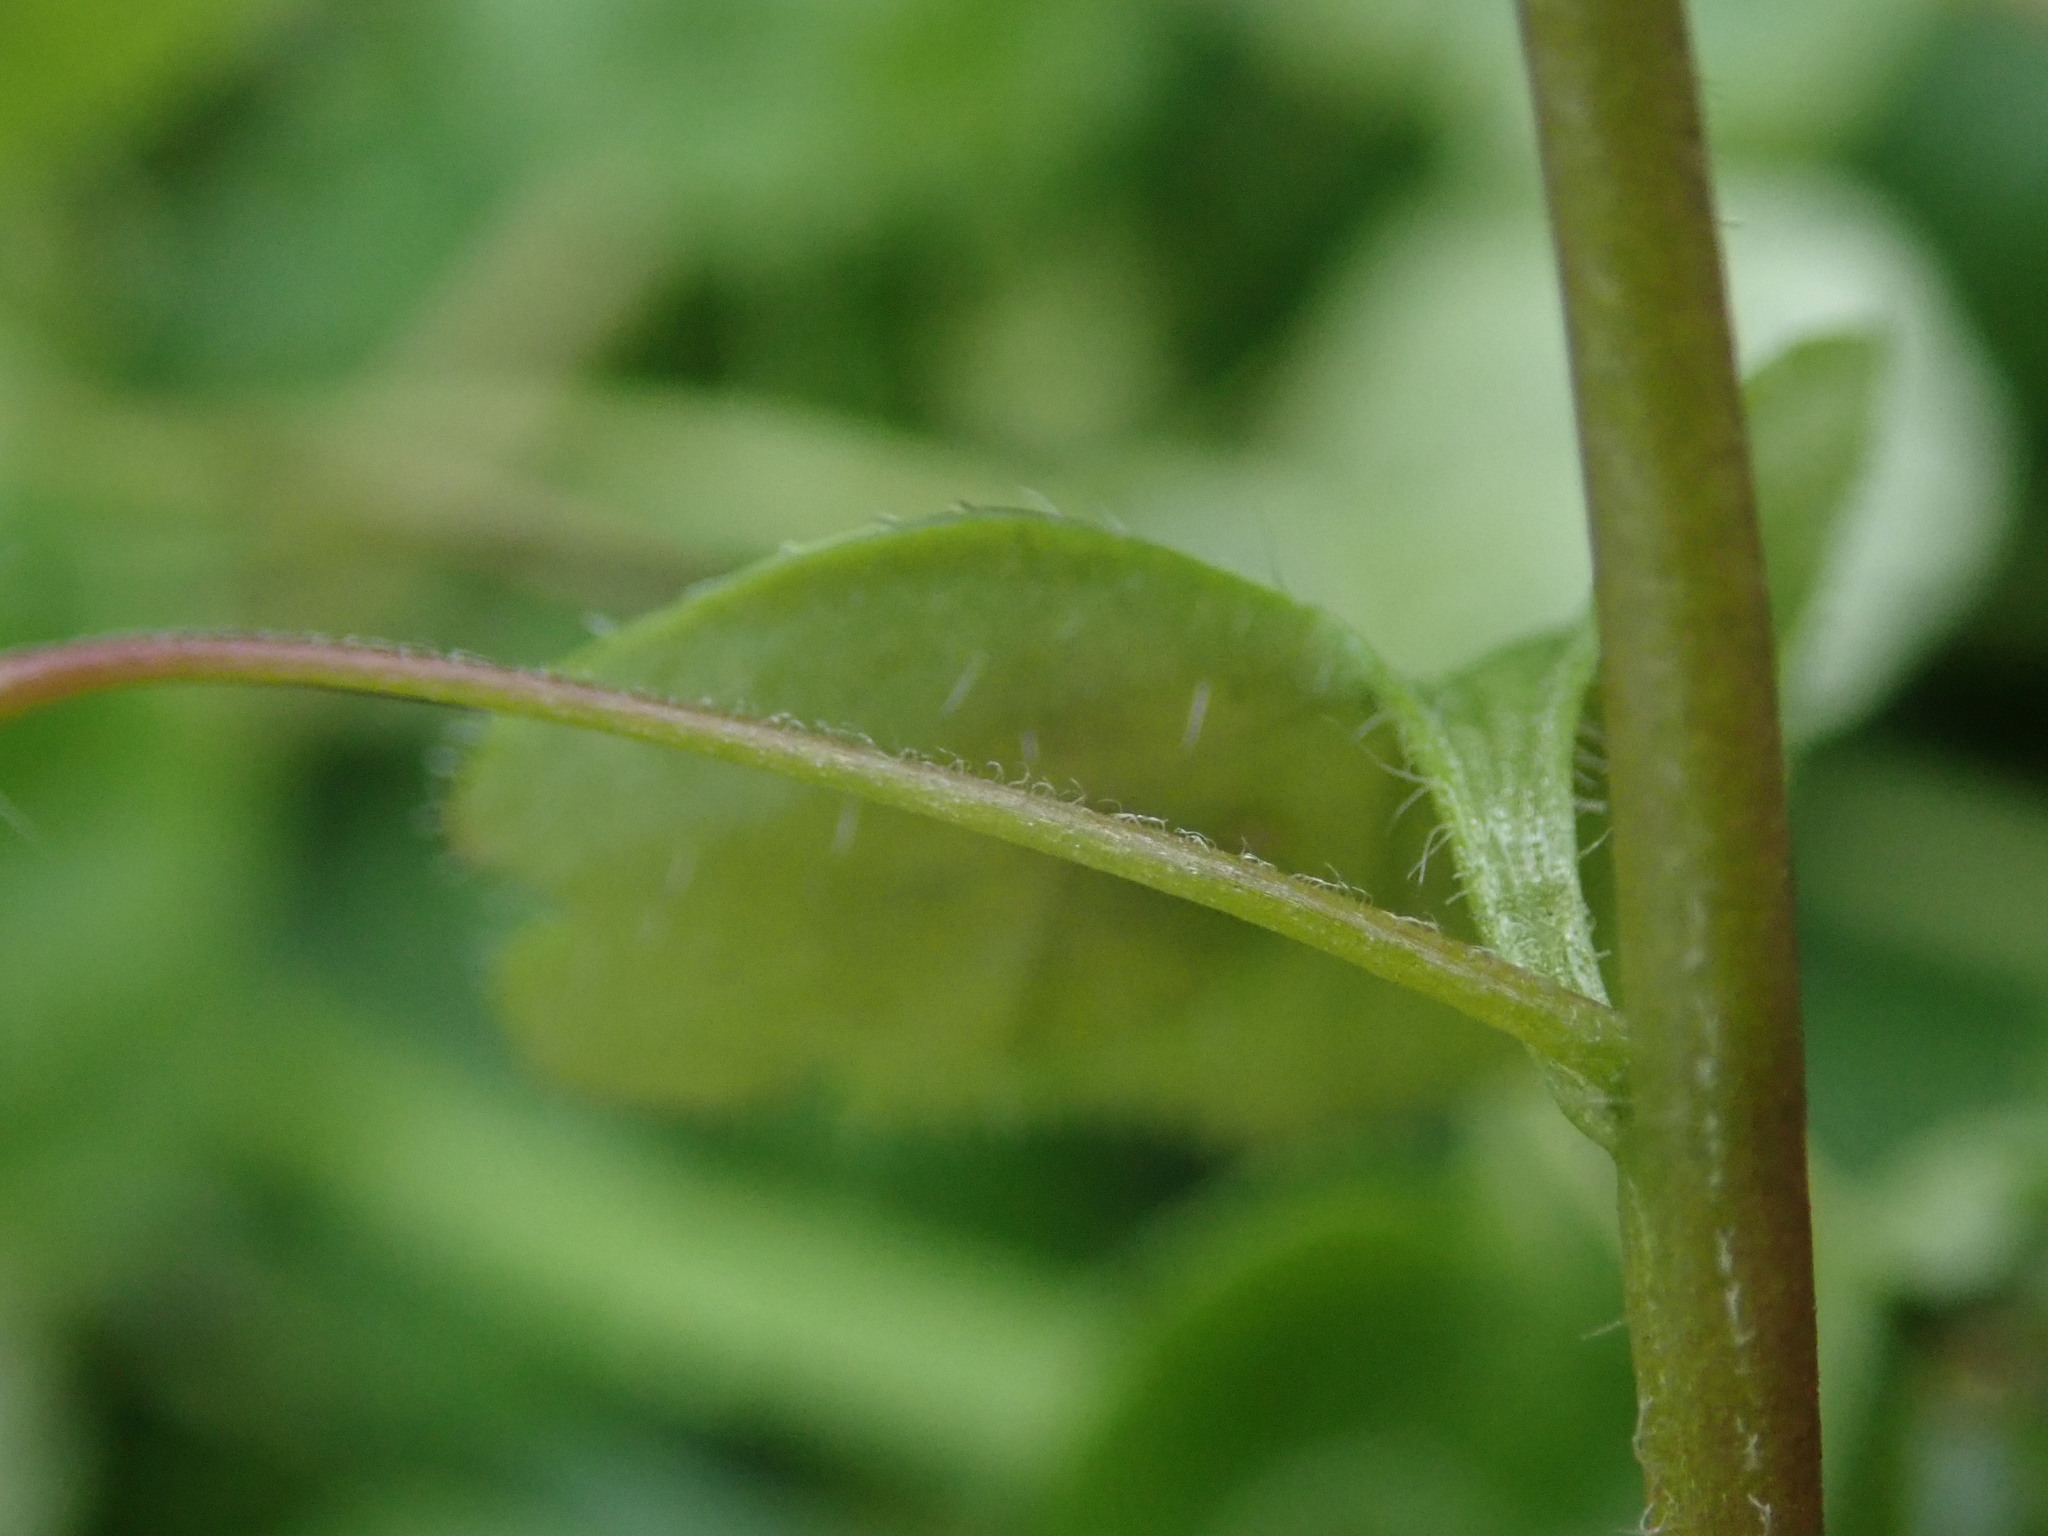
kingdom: Plantae
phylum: Tracheophyta
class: Magnoliopsida
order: Lamiales
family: Plantaginaceae
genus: Veronica
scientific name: Veronica hederifolia
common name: Ivy-leaved speedwell
